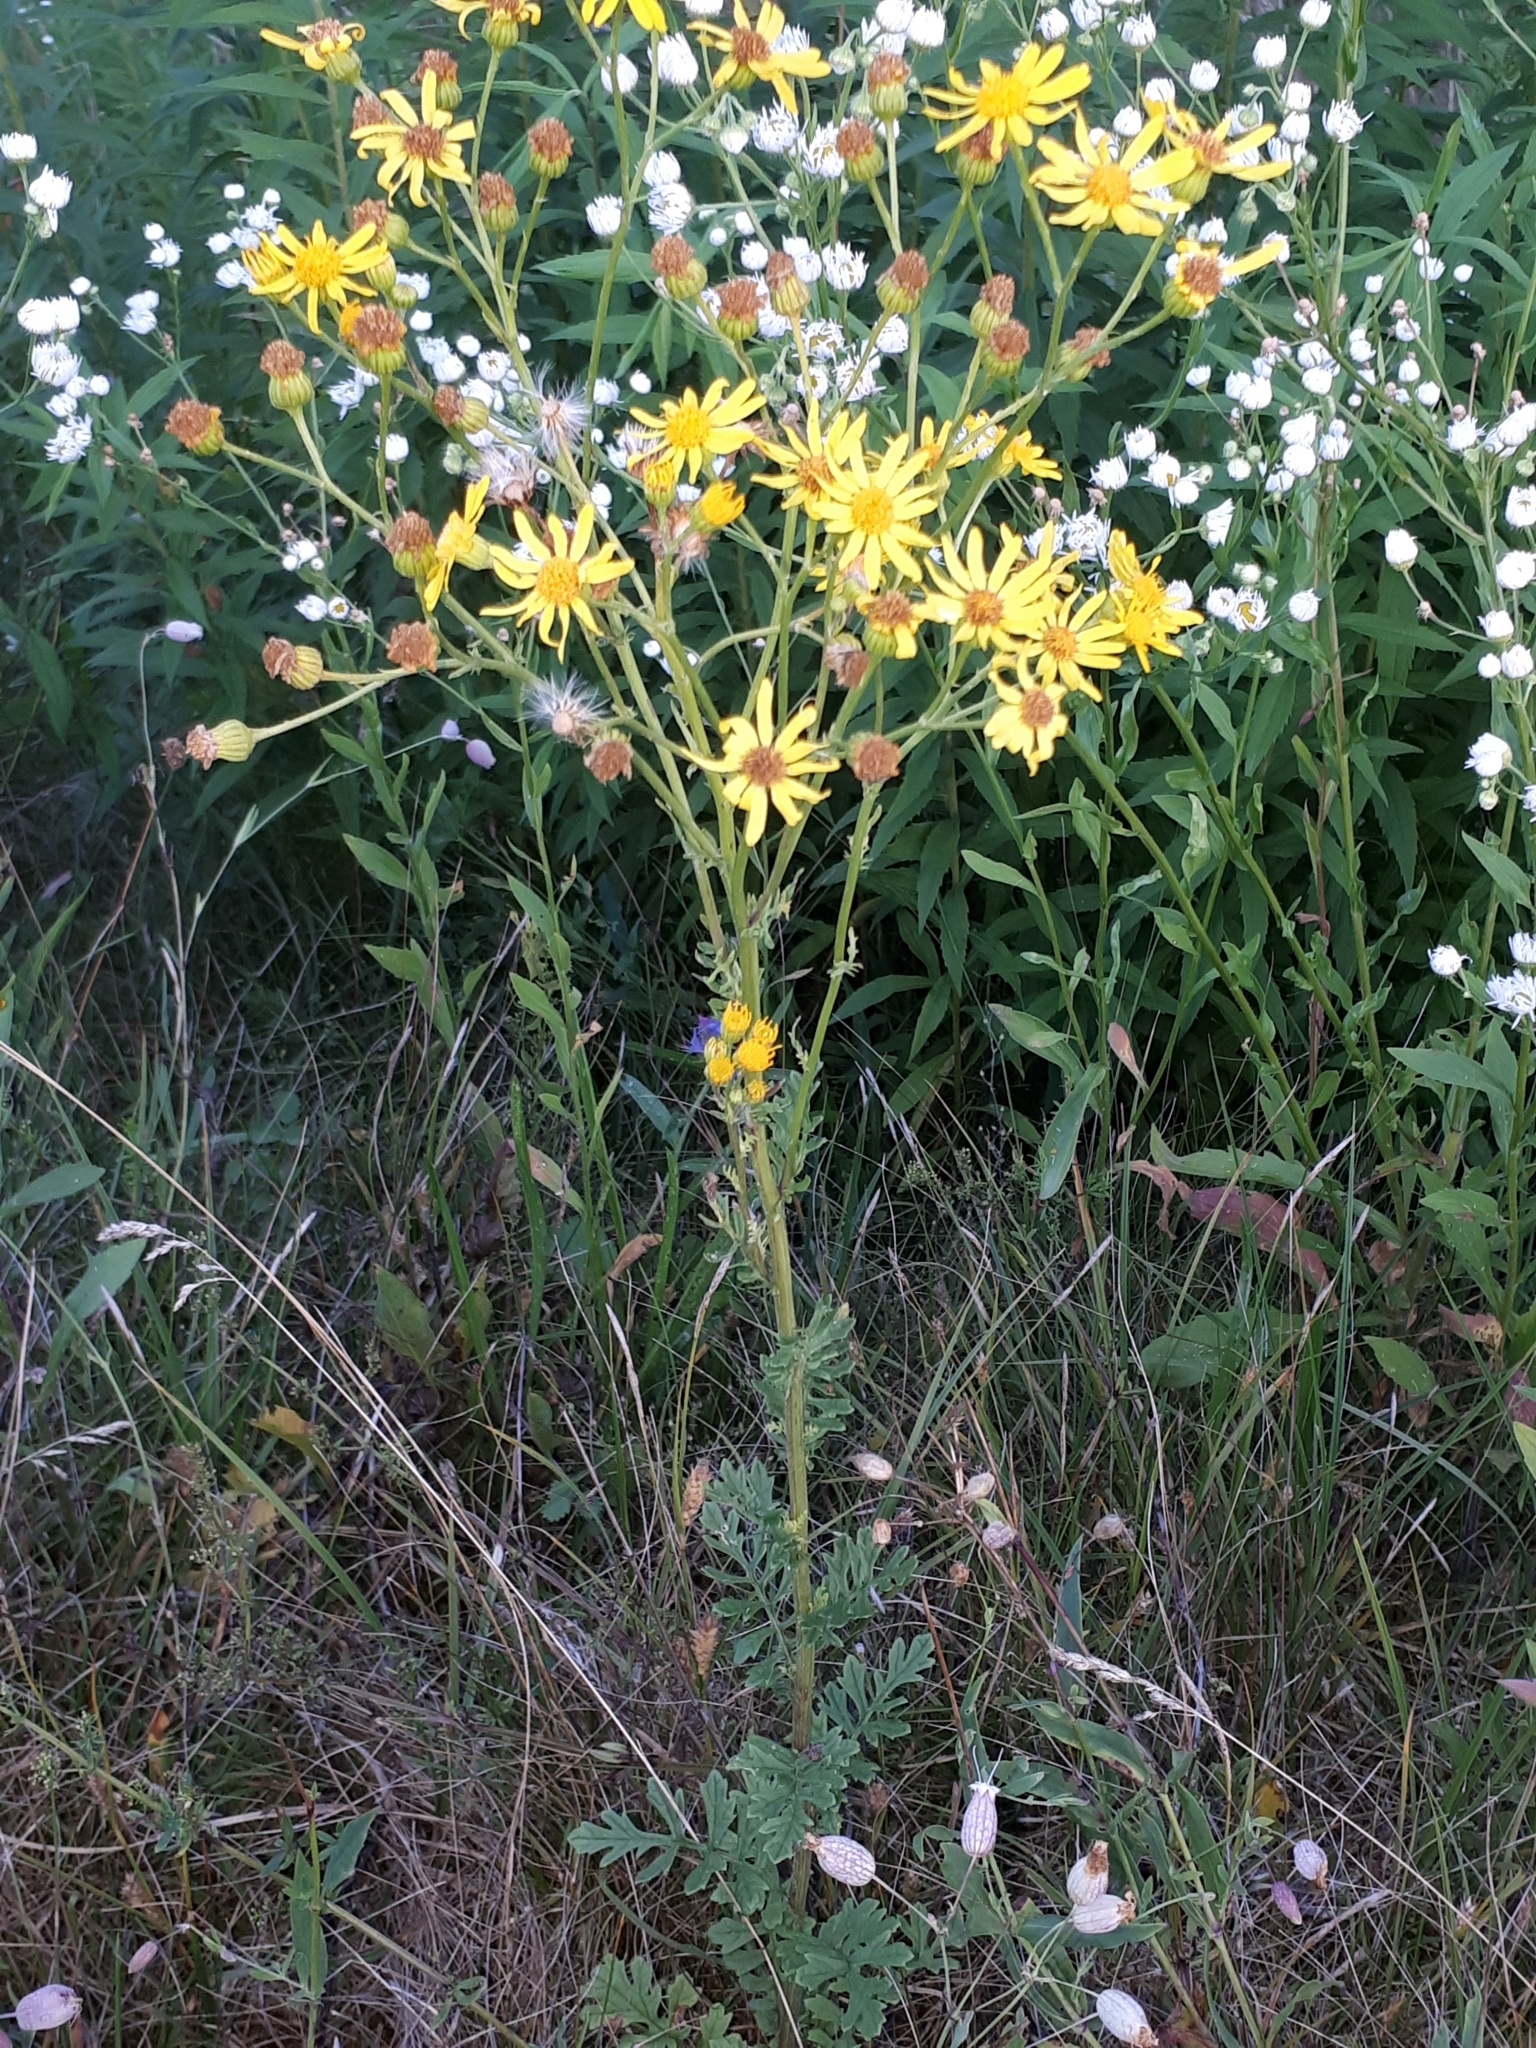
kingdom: Plantae
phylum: Tracheophyta
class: Magnoliopsida
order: Asterales
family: Asteraceae
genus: Jacobaea
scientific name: Jacobaea vulgaris
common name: Stinking willie
